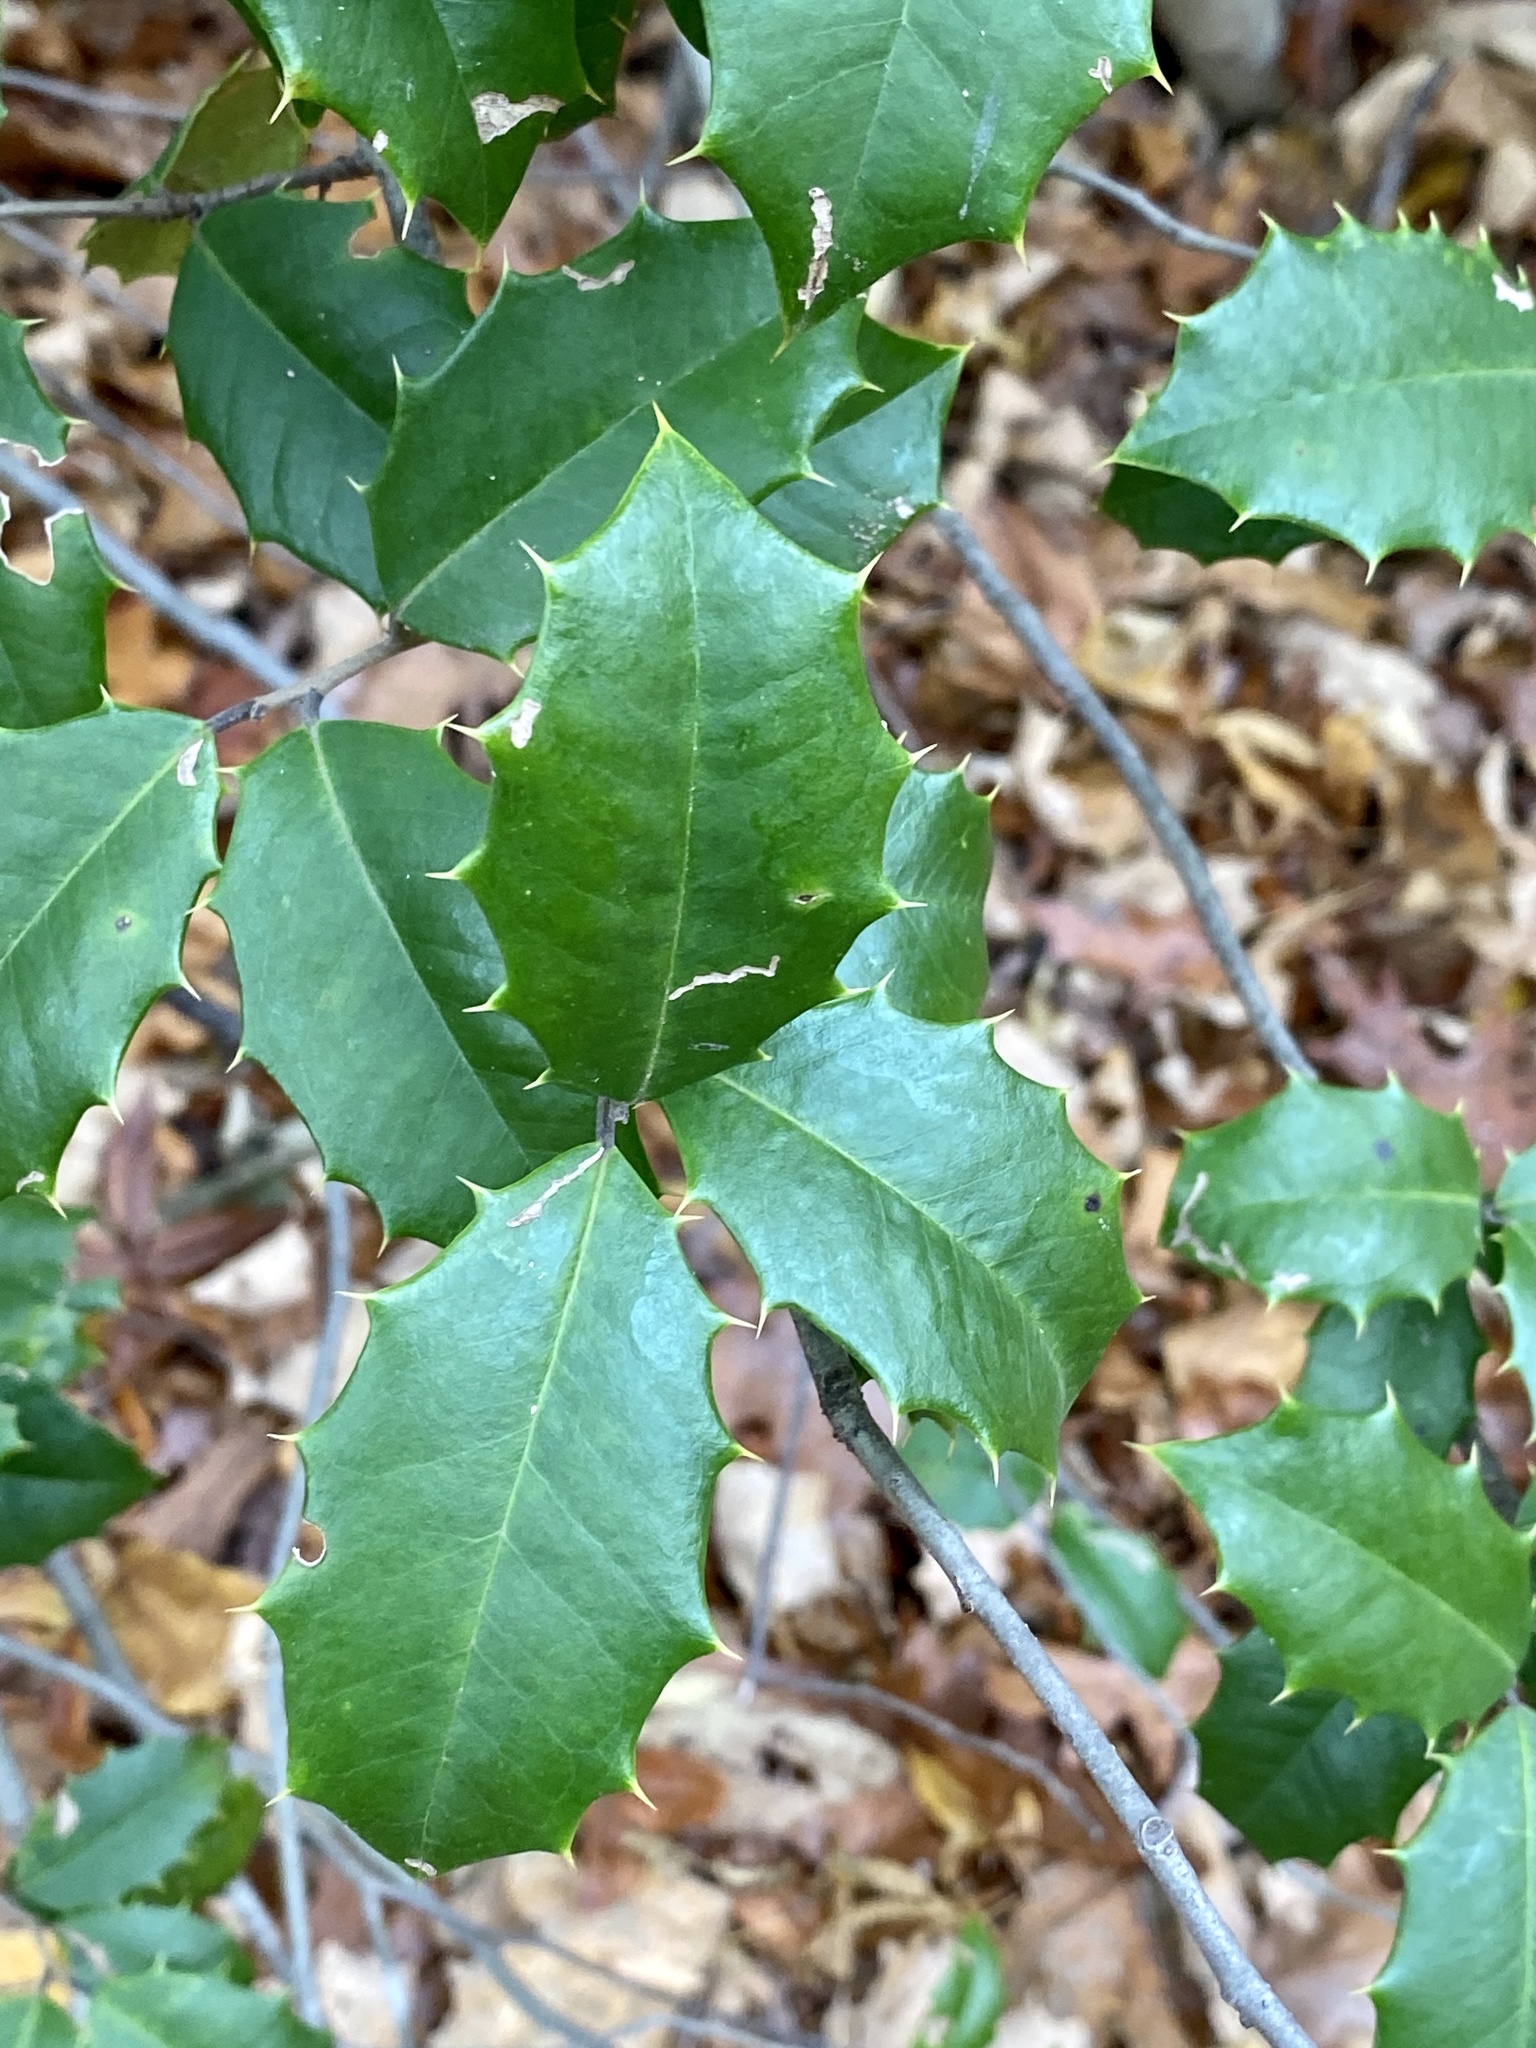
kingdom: Plantae
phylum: Tracheophyta
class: Magnoliopsida
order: Aquifoliales
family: Aquifoliaceae
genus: Ilex
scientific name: Ilex opaca
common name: American holly
